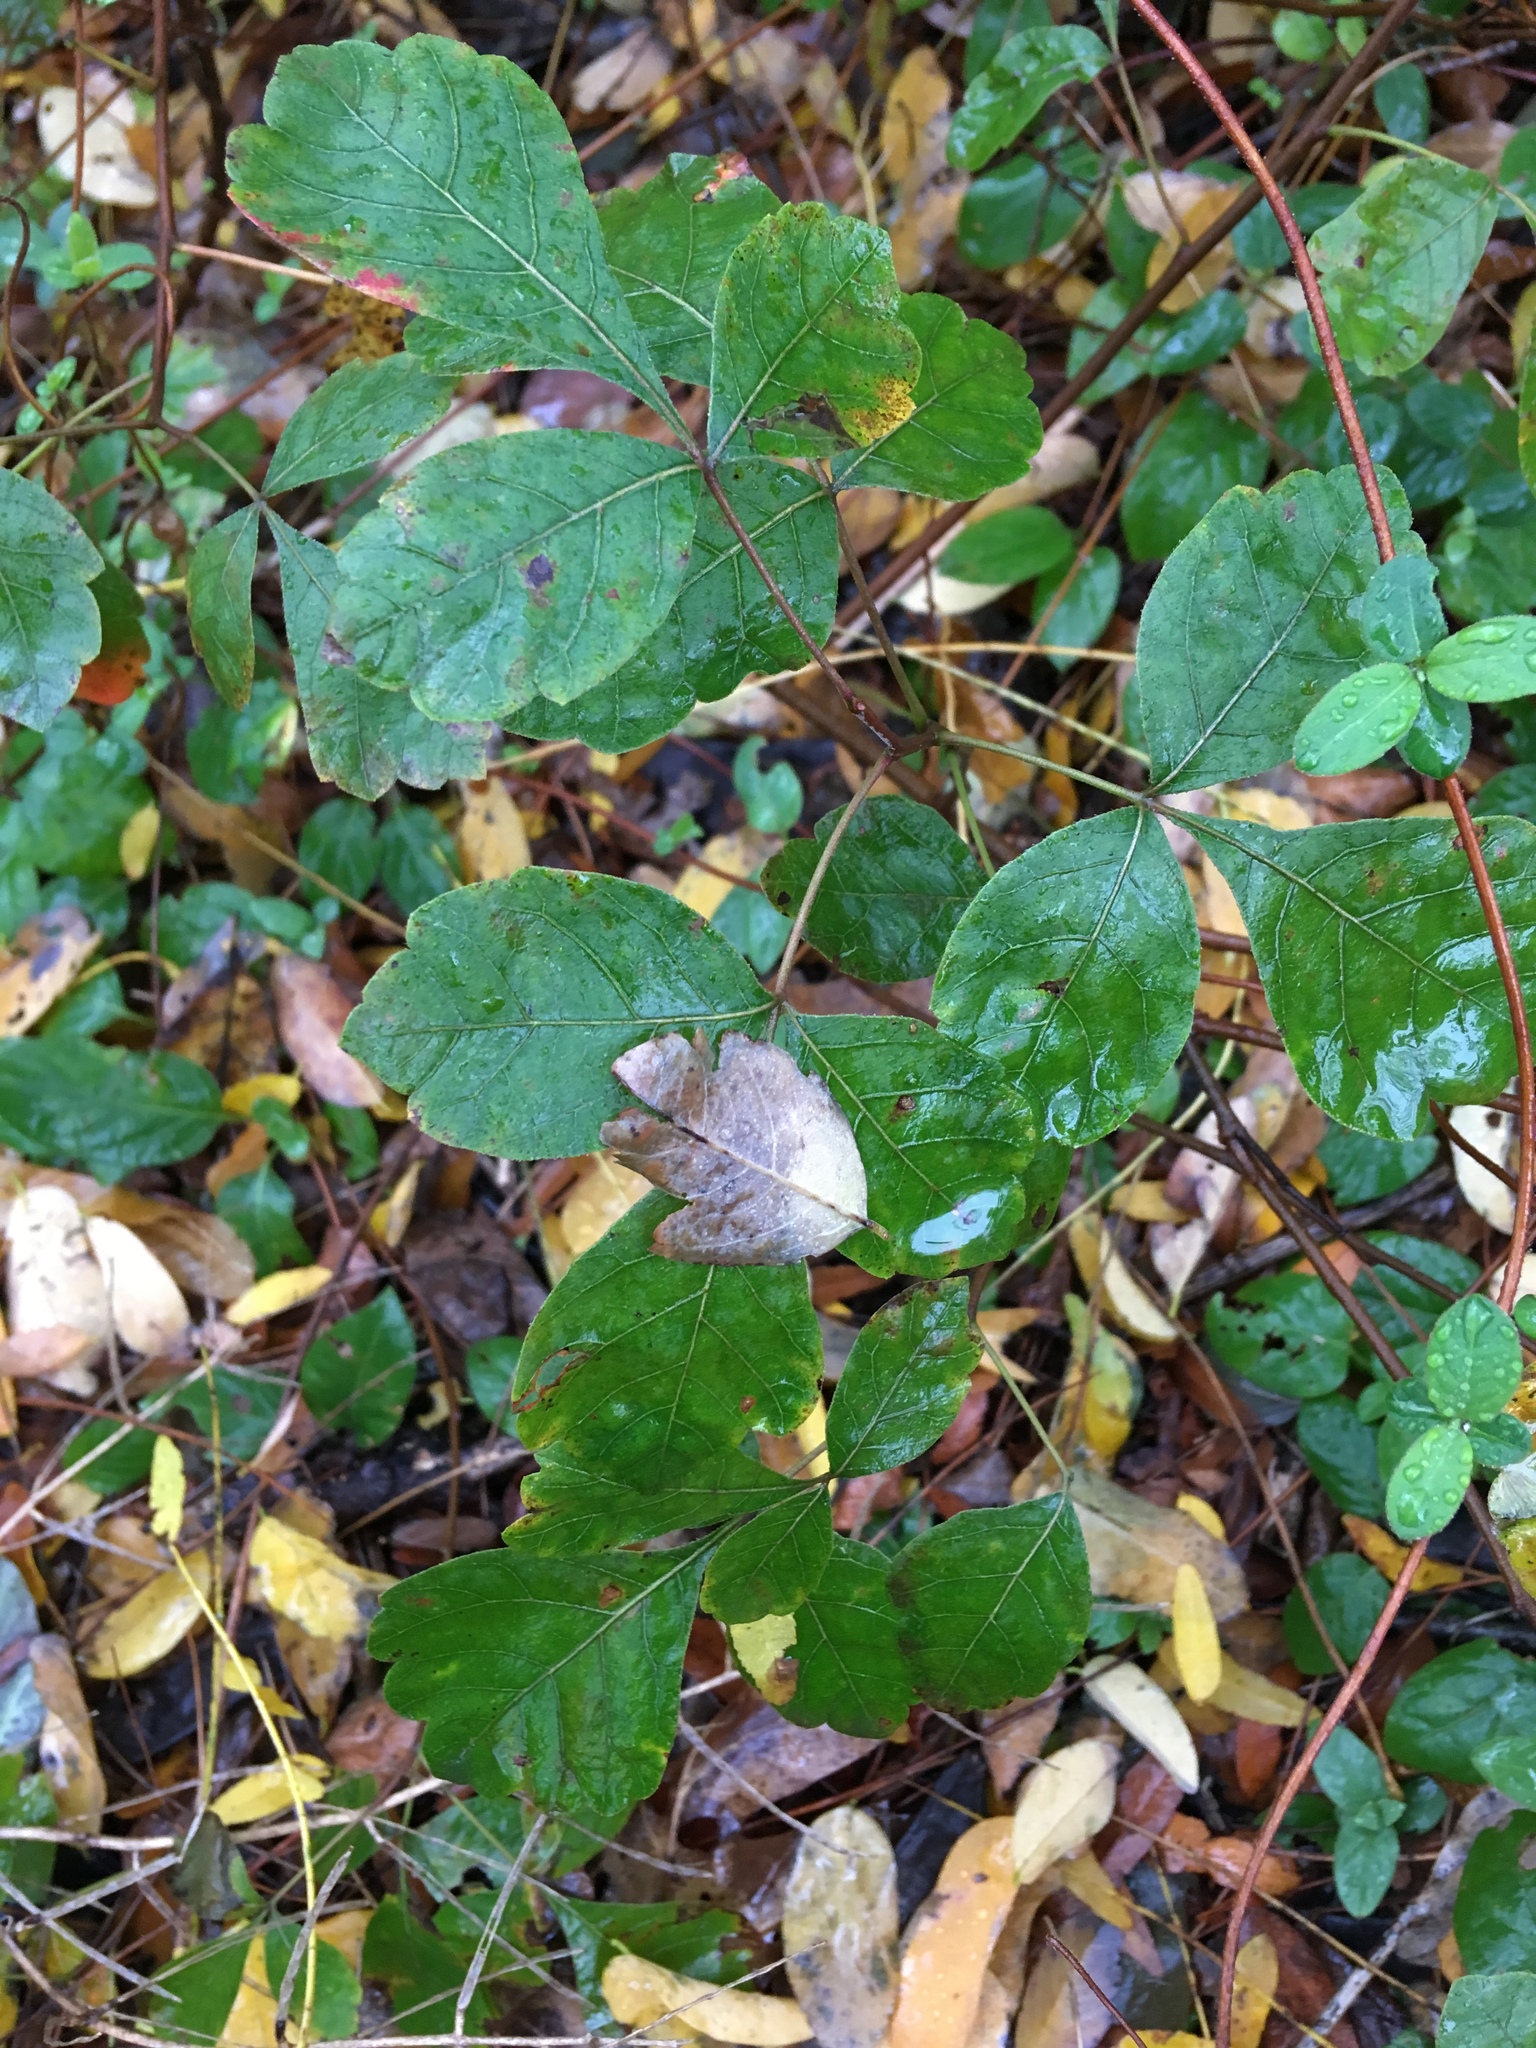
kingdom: Plantae
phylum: Tracheophyta
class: Magnoliopsida
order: Sapindales
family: Anacardiaceae
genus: Rhus
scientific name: Rhus aromatica
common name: Aromatic sumac
